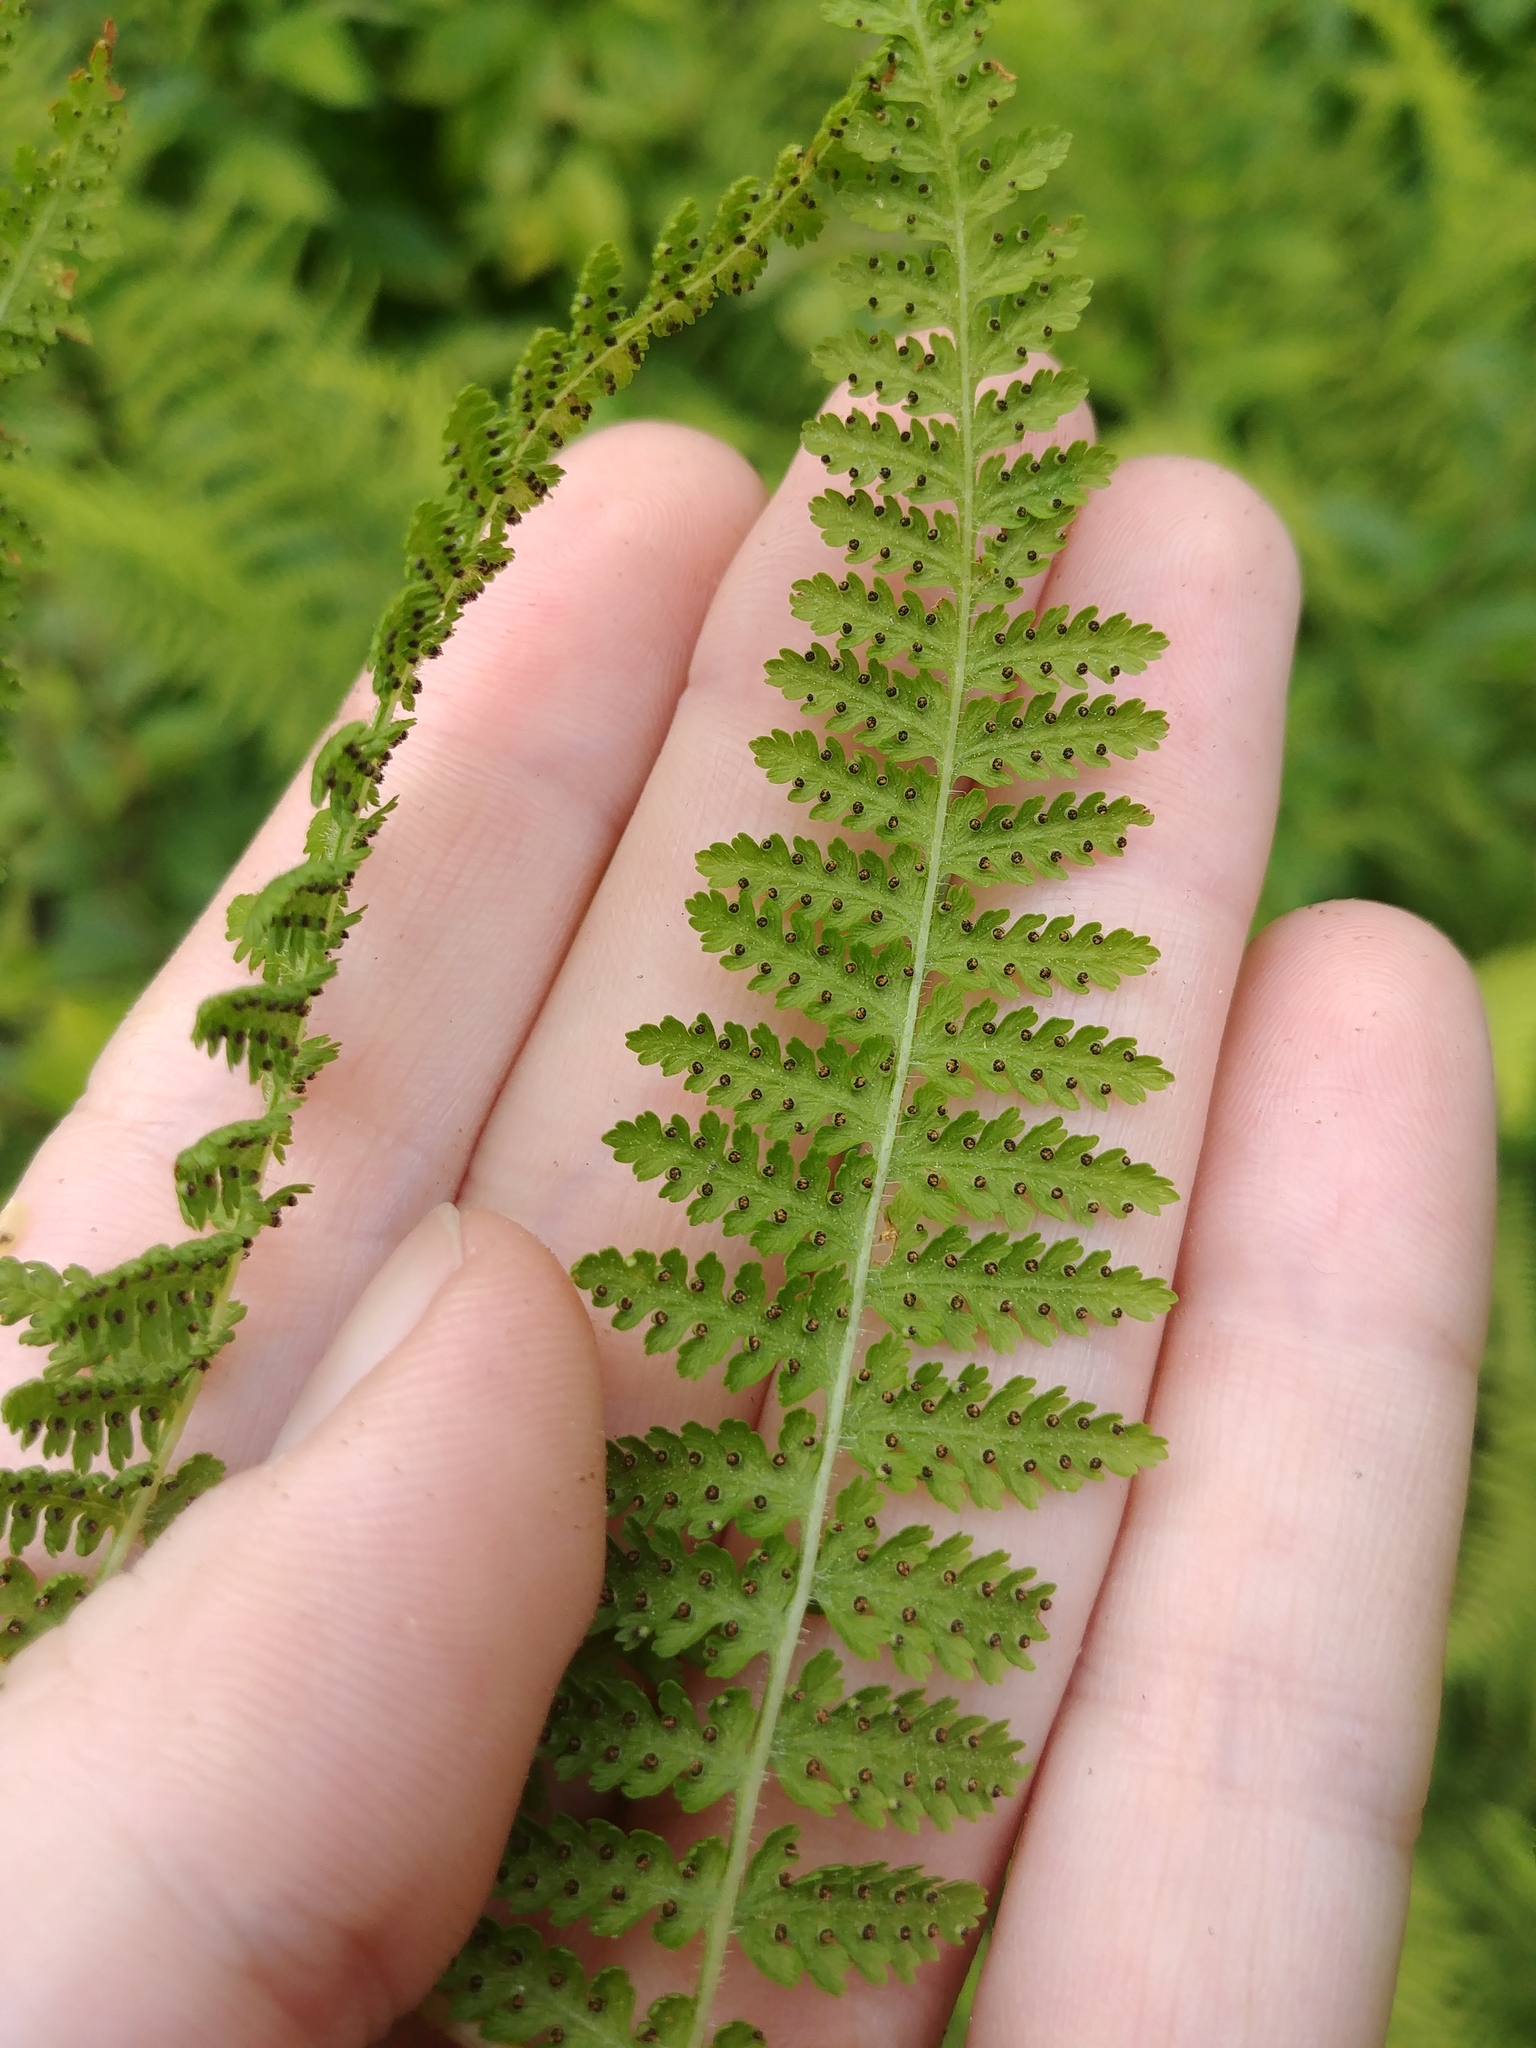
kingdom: Plantae
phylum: Tracheophyta
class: Polypodiopsida
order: Polypodiales
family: Dennstaedtiaceae
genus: Sitobolium
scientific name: Sitobolium punctilobum
